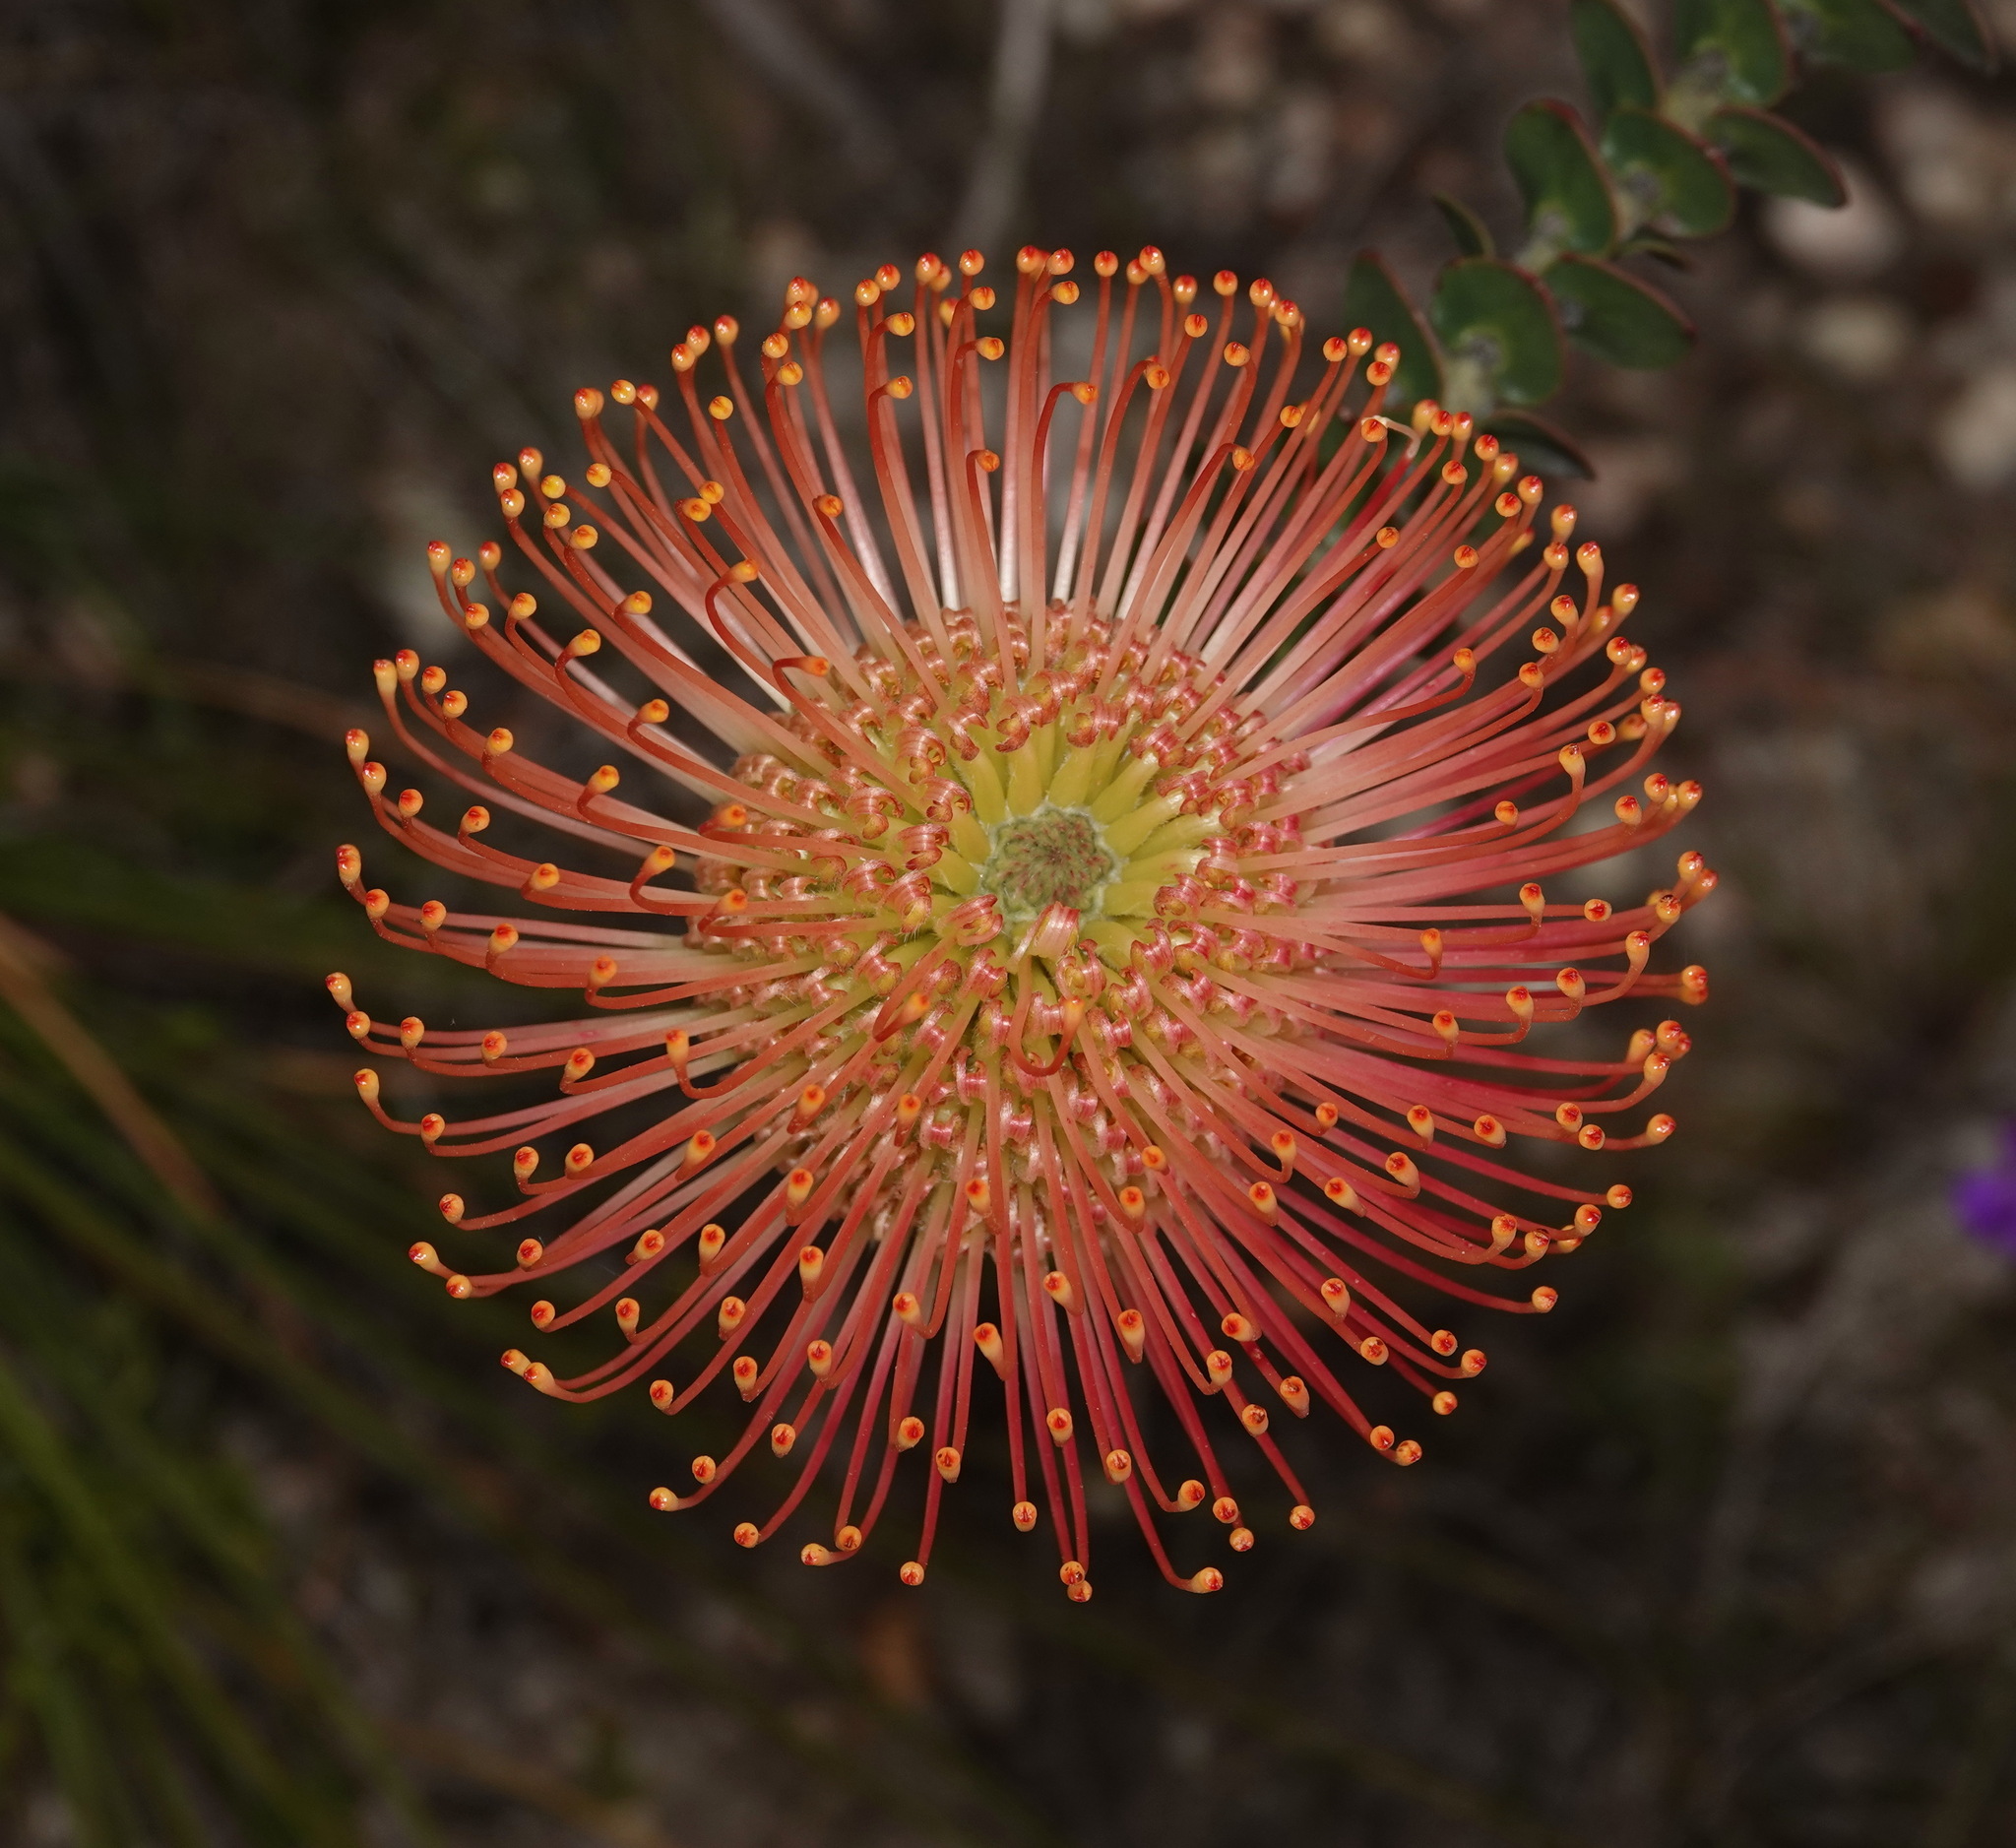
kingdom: Plantae
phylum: Tracheophyta
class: Magnoliopsida
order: Proteales
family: Proteaceae
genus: Leucospermum
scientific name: Leucospermum cordifolium
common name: Red pincushion-protea
